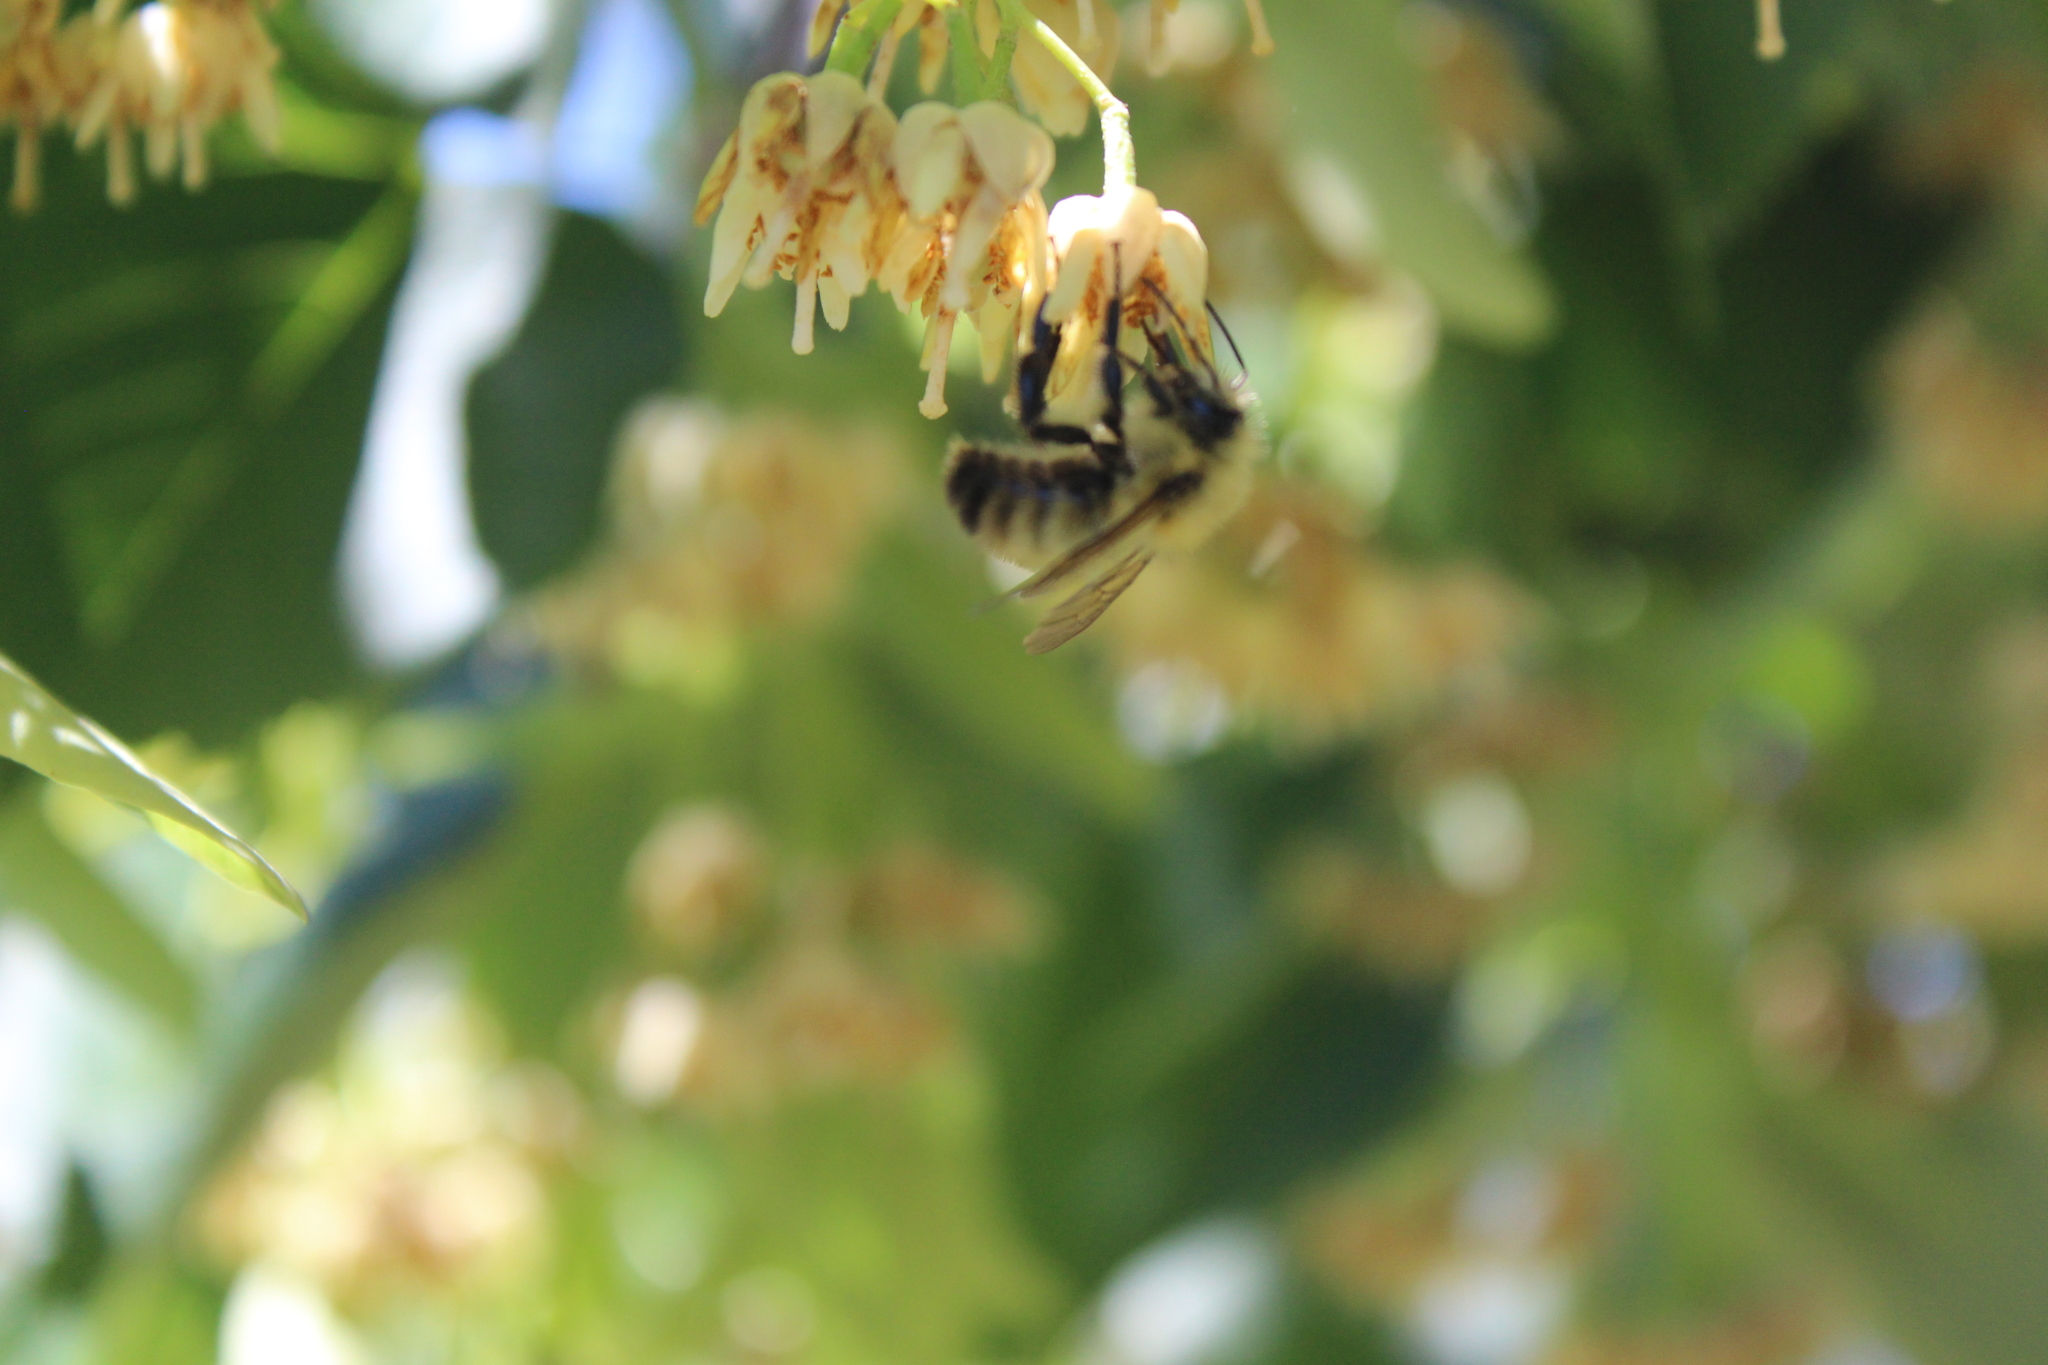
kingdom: Animalia
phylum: Arthropoda
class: Insecta
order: Hymenoptera
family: Apidae
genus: Bombus
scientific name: Bombus perplexus
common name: Confusing bumble bee
